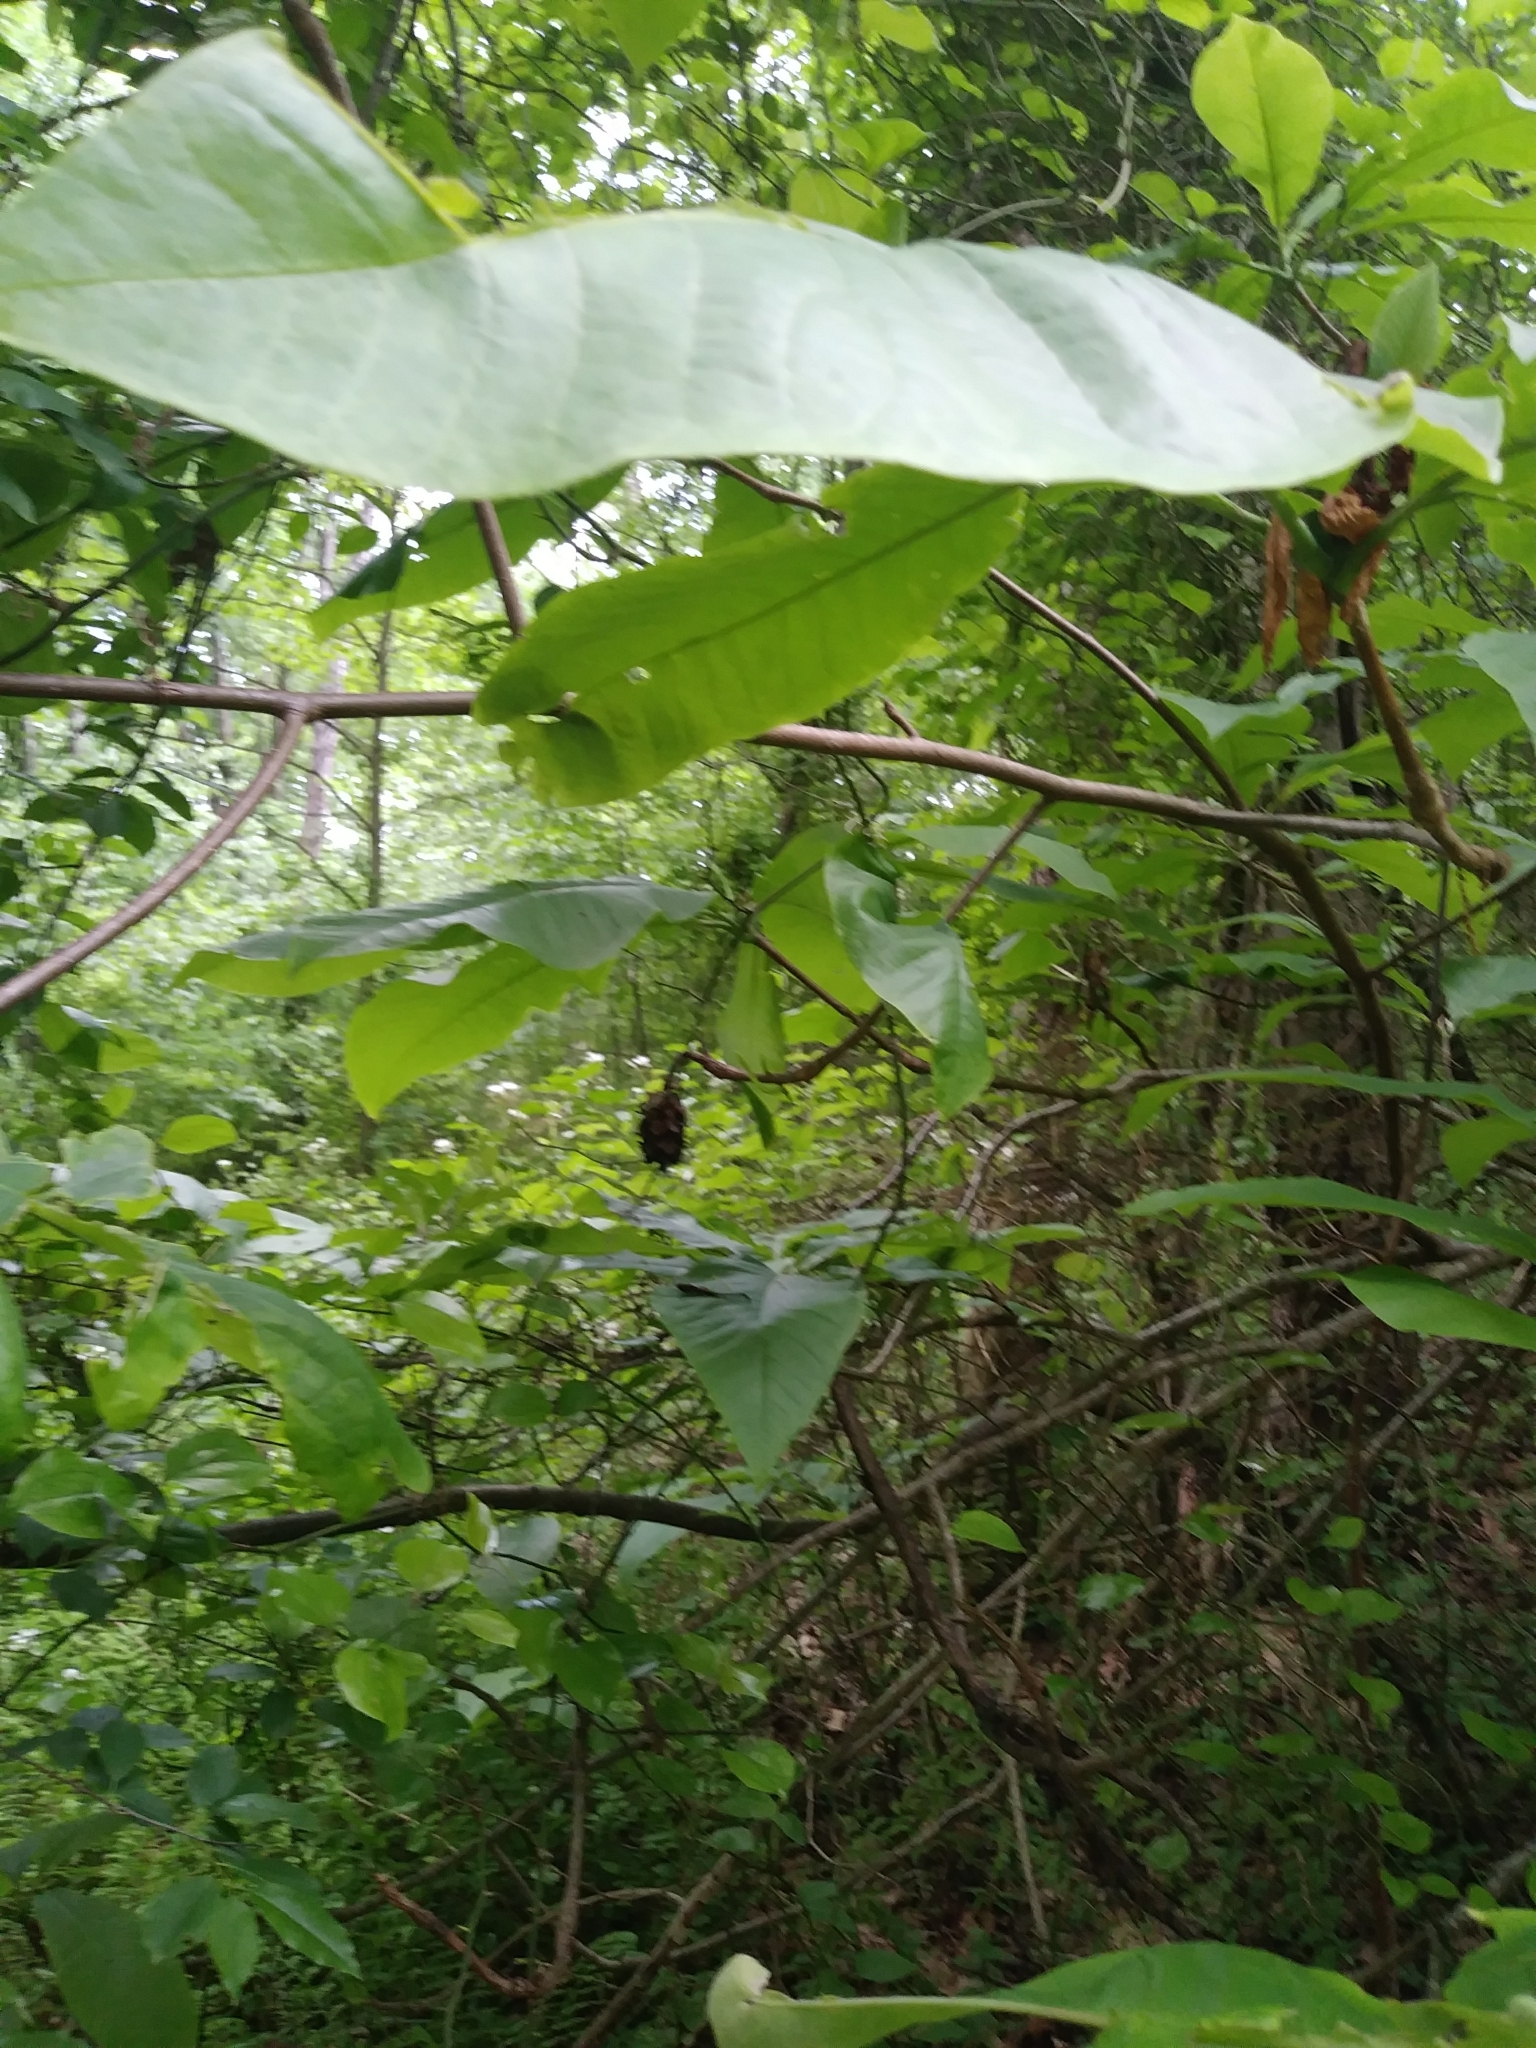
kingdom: Plantae
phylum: Tracheophyta
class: Magnoliopsida
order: Magnoliales
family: Magnoliaceae
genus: Magnolia
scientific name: Magnolia tripetala
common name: Umbrella magnolia
